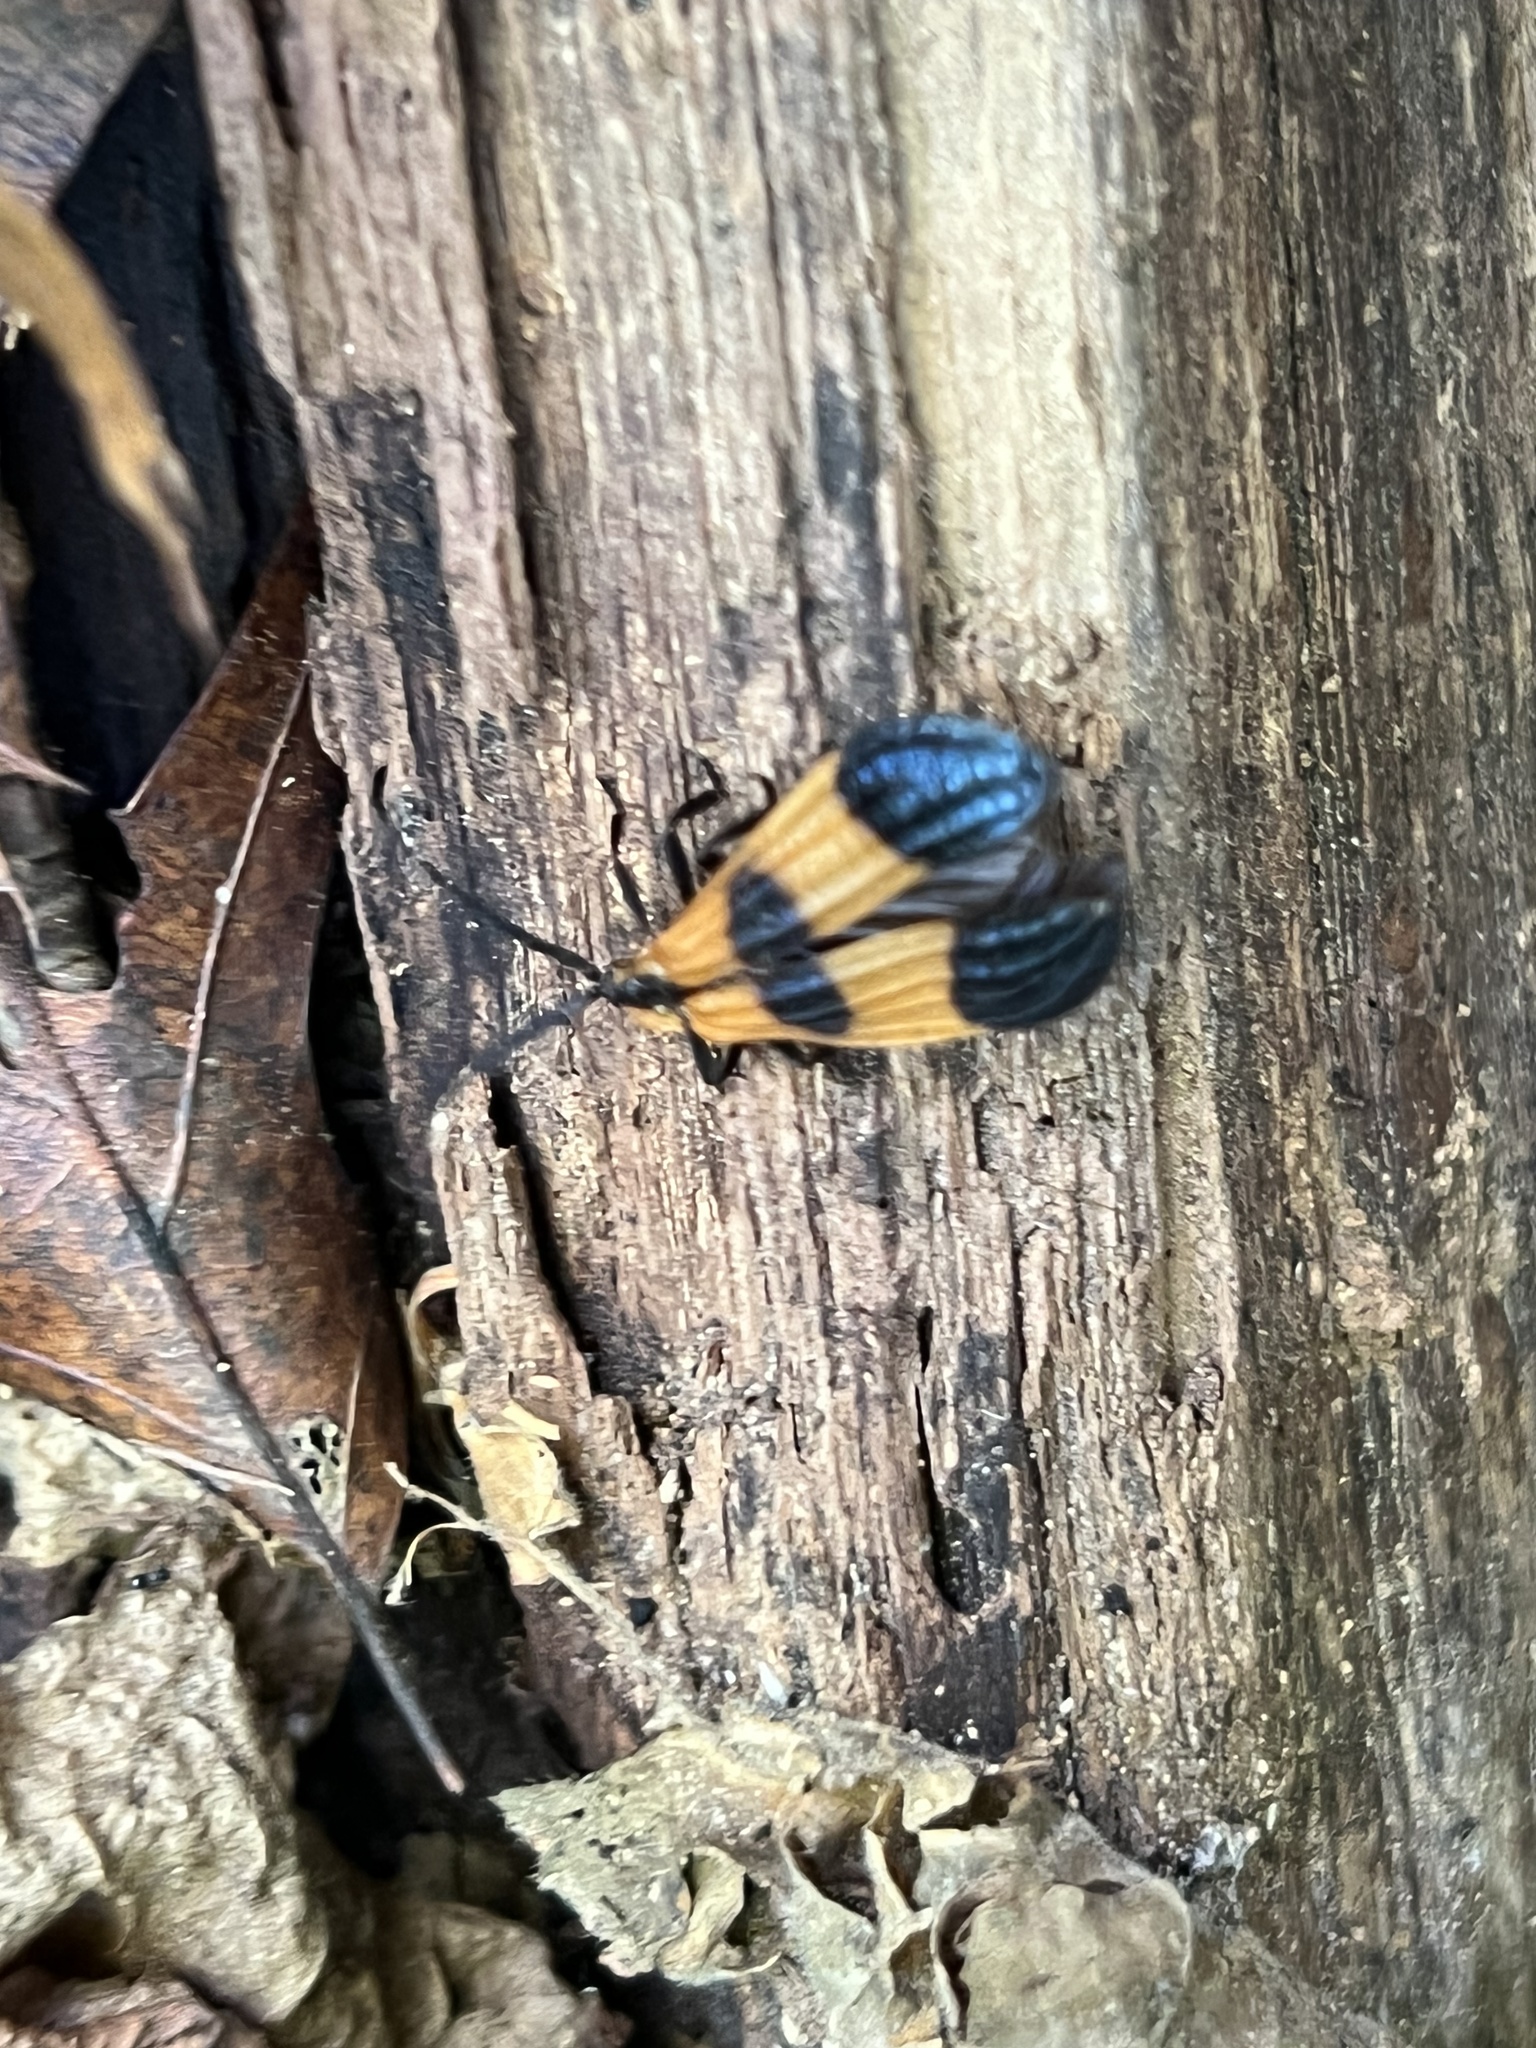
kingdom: Animalia
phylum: Arthropoda
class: Insecta
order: Coleoptera
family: Lycidae
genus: Calopteron
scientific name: Calopteron terminale
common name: End band net-winged beetle
